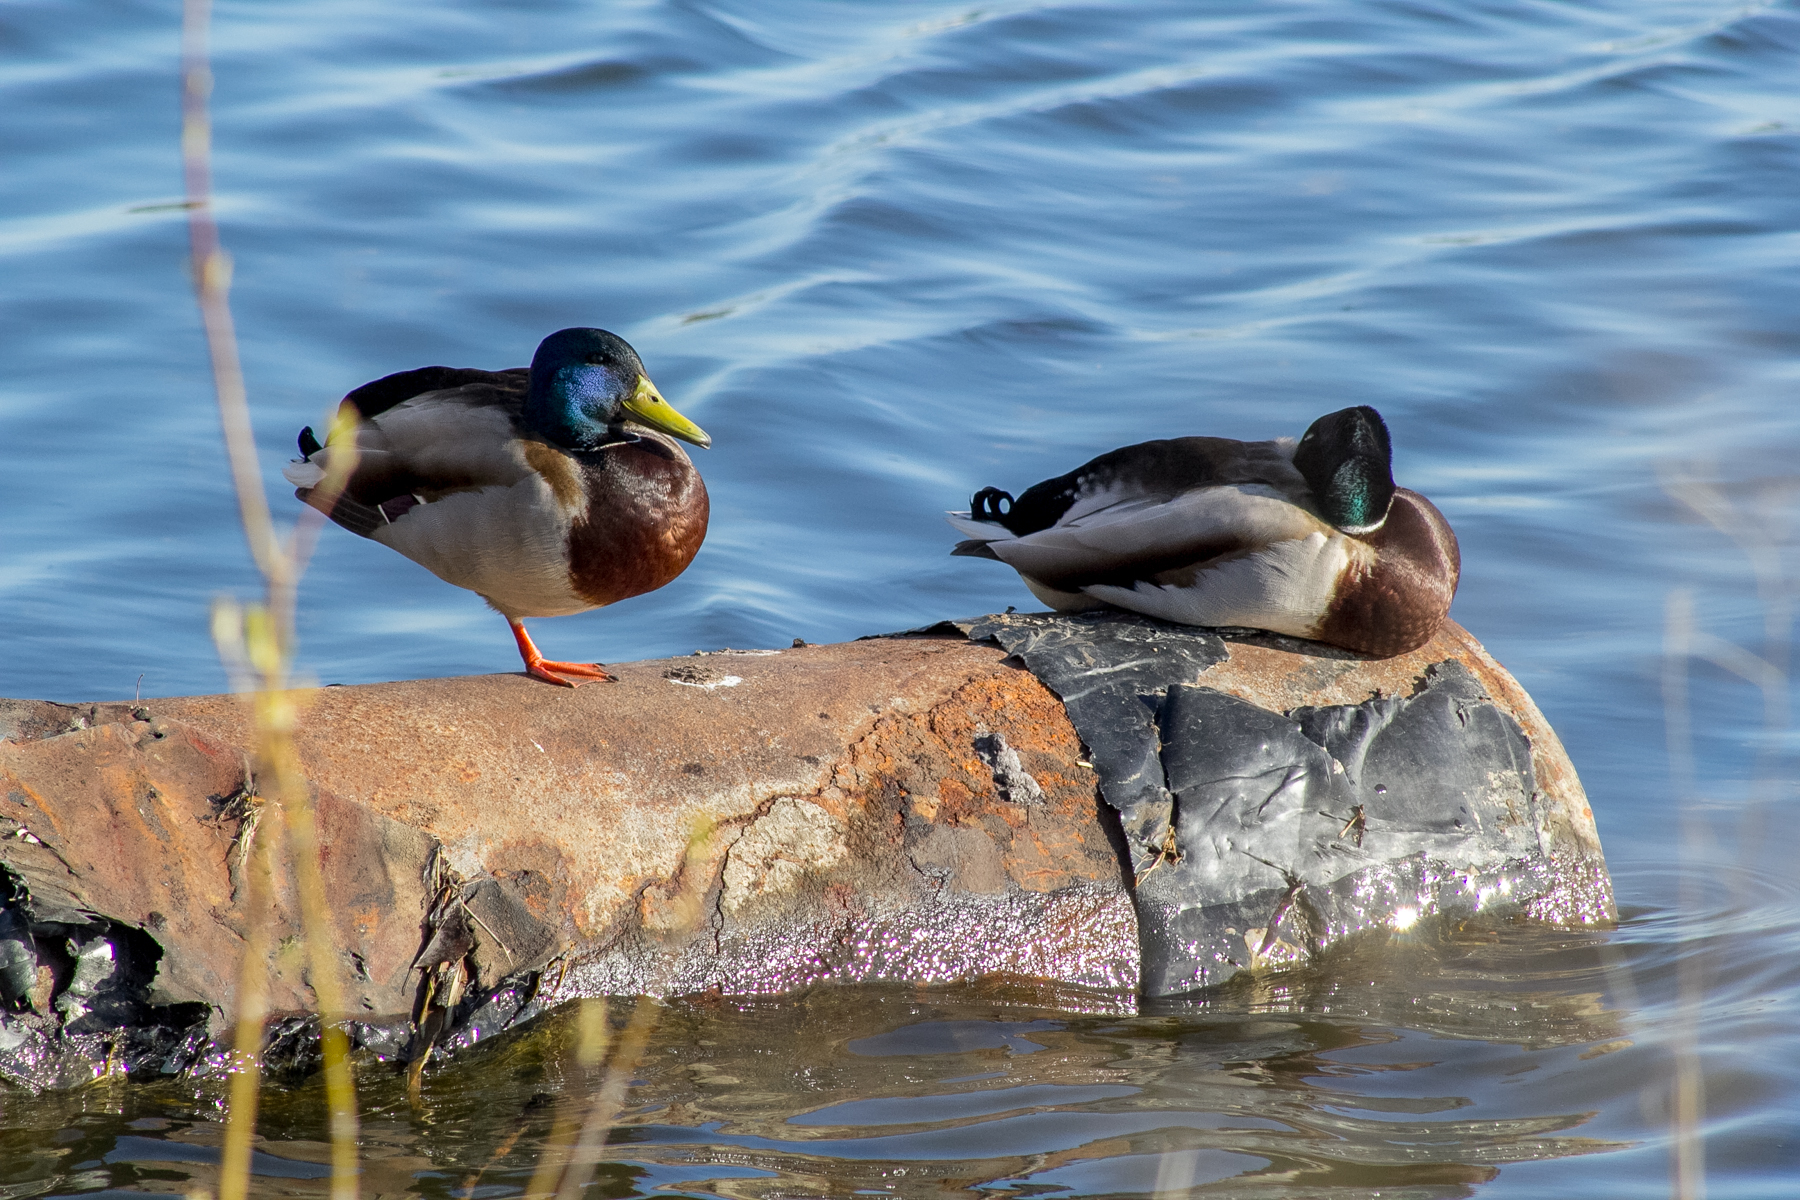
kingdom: Animalia
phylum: Chordata
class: Aves
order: Anseriformes
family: Anatidae
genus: Anas
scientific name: Anas platyrhynchos
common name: Mallard
